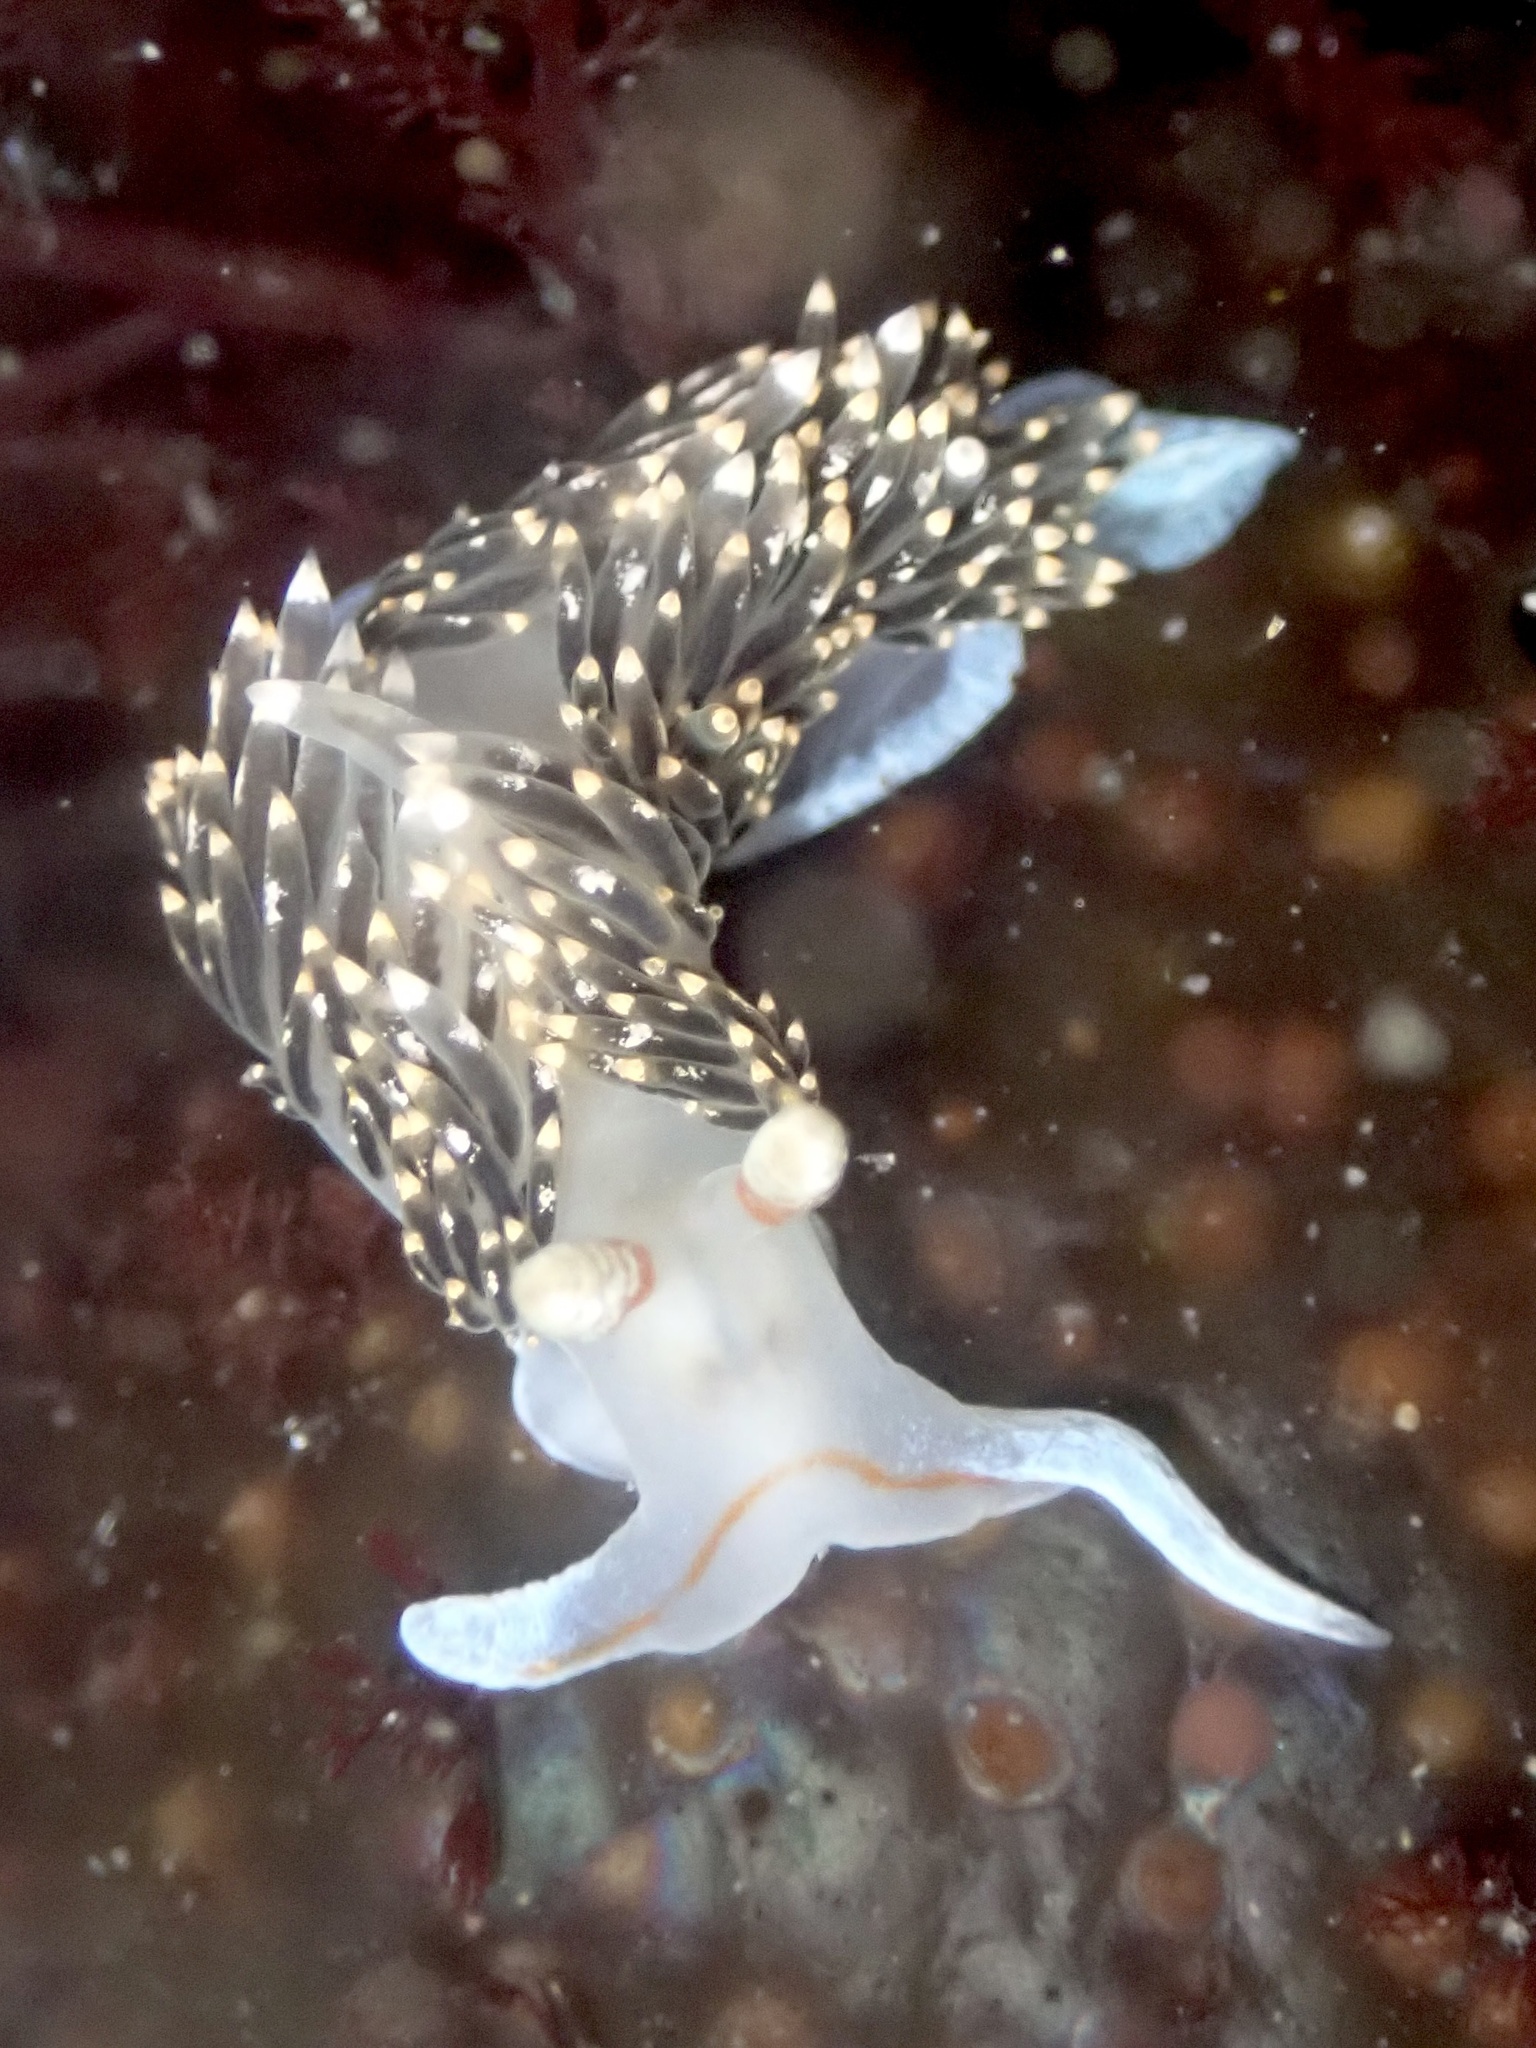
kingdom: Animalia
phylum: Mollusca
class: Gastropoda
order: Nudibranchia
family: Facelinidae
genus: Phidiana
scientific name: Phidiana hiltoni
